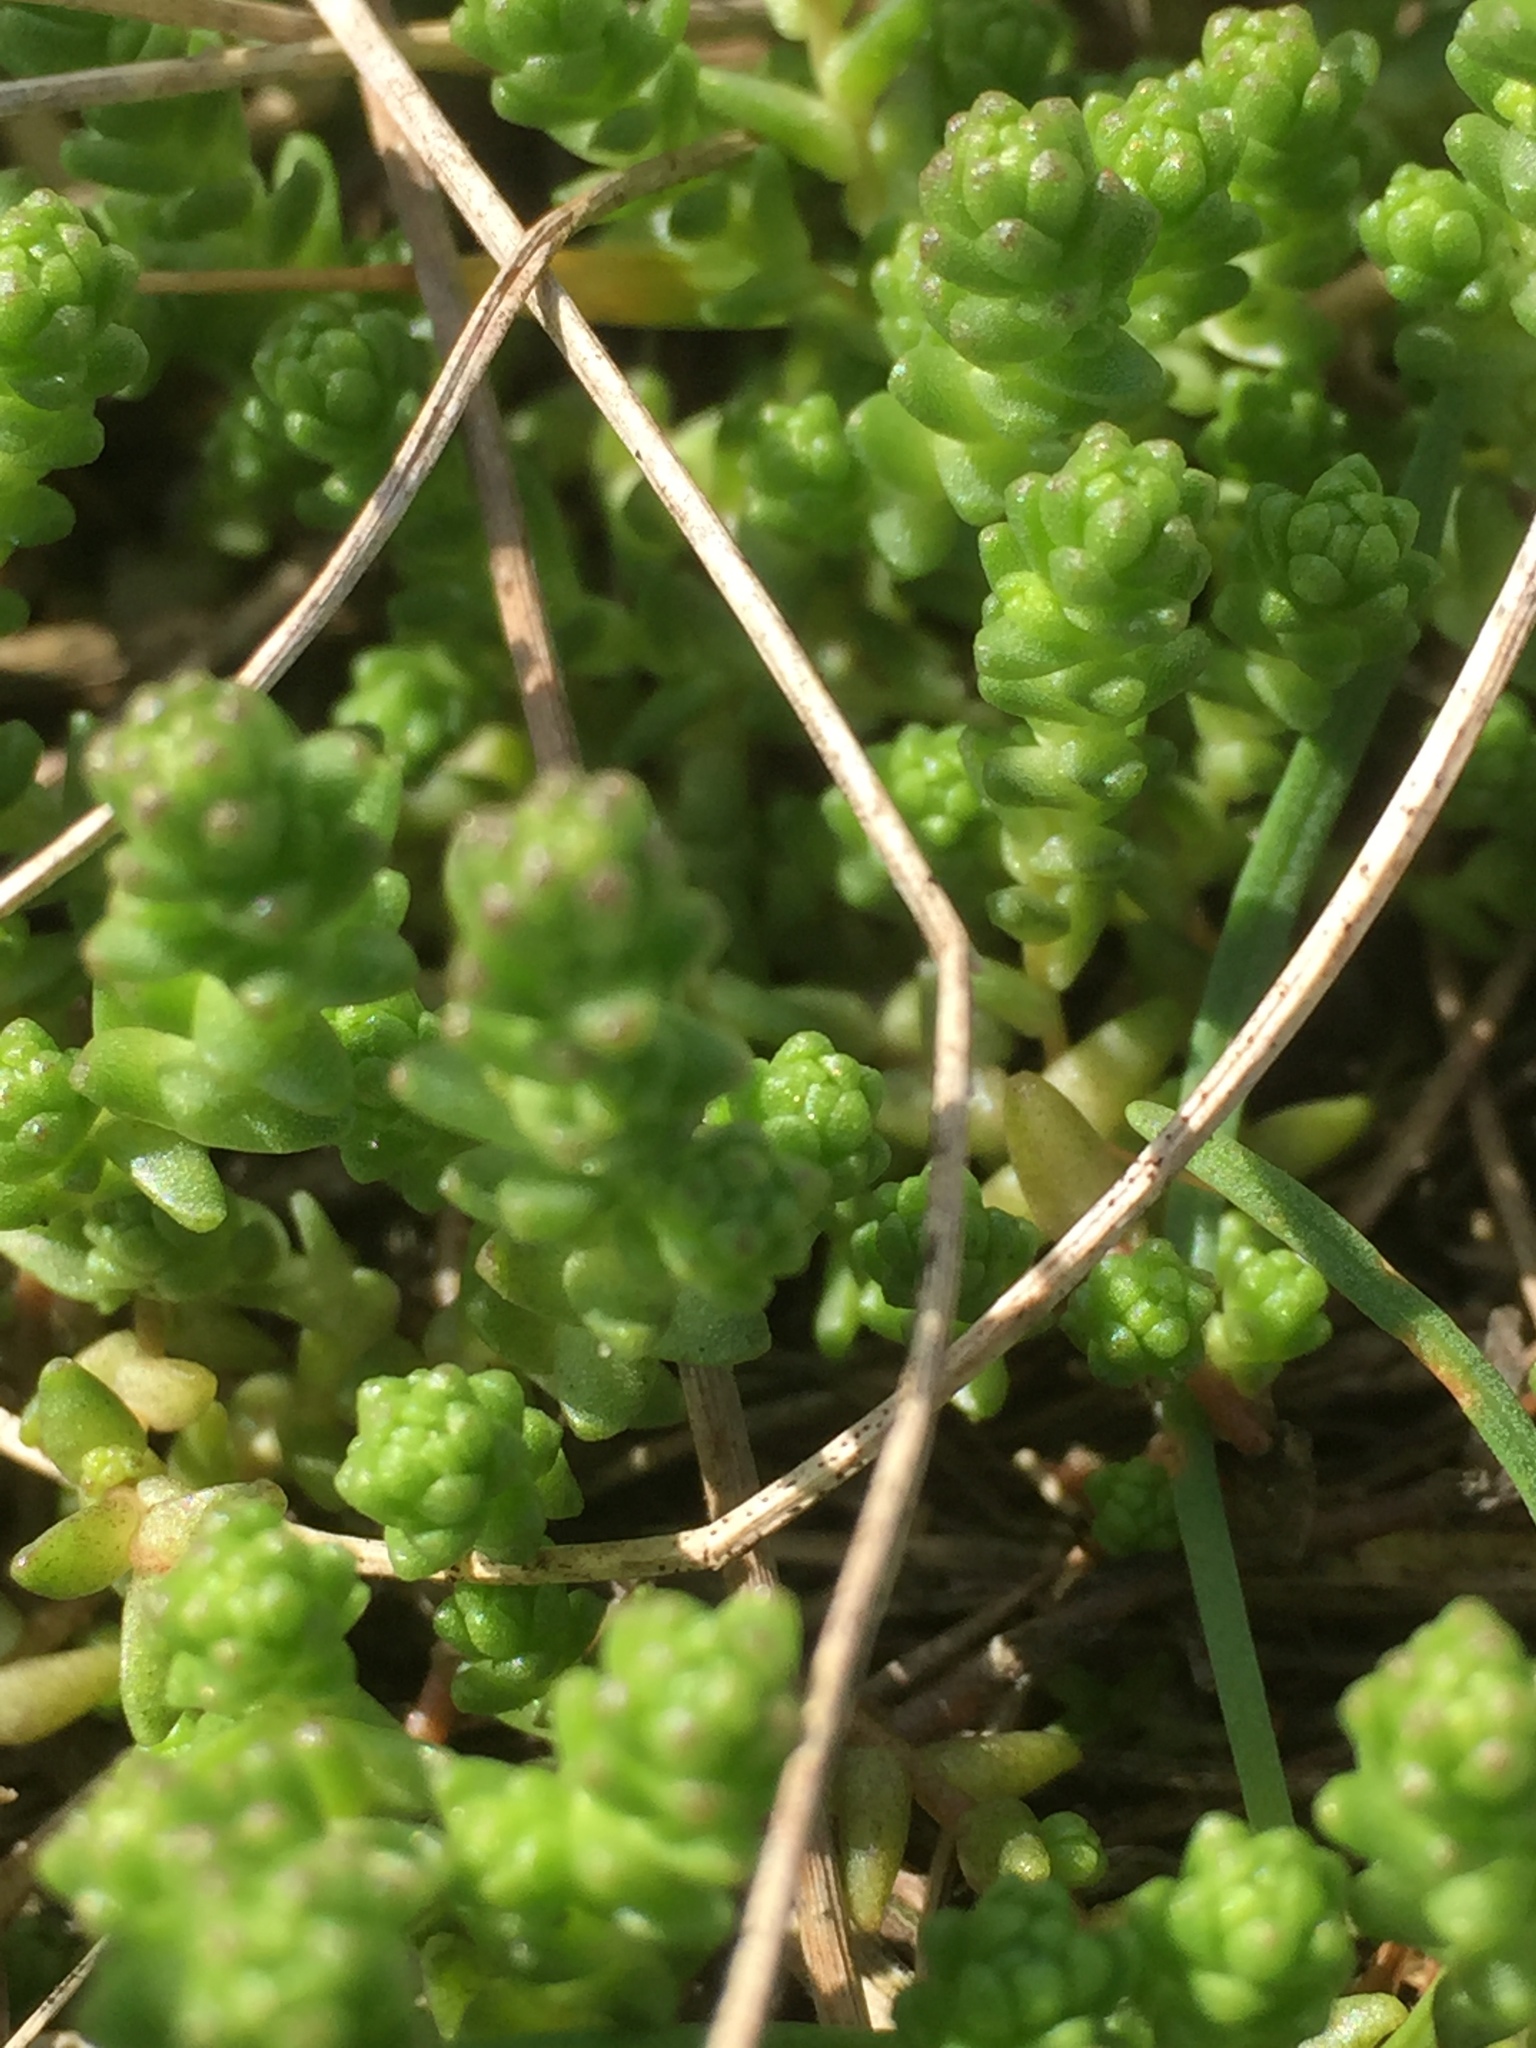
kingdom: Plantae
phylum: Tracheophyta
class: Magnoliopsida
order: Saxifragales
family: Crassulaceae
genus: Sedum
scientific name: Sedum acre
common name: Biting stonecrop
